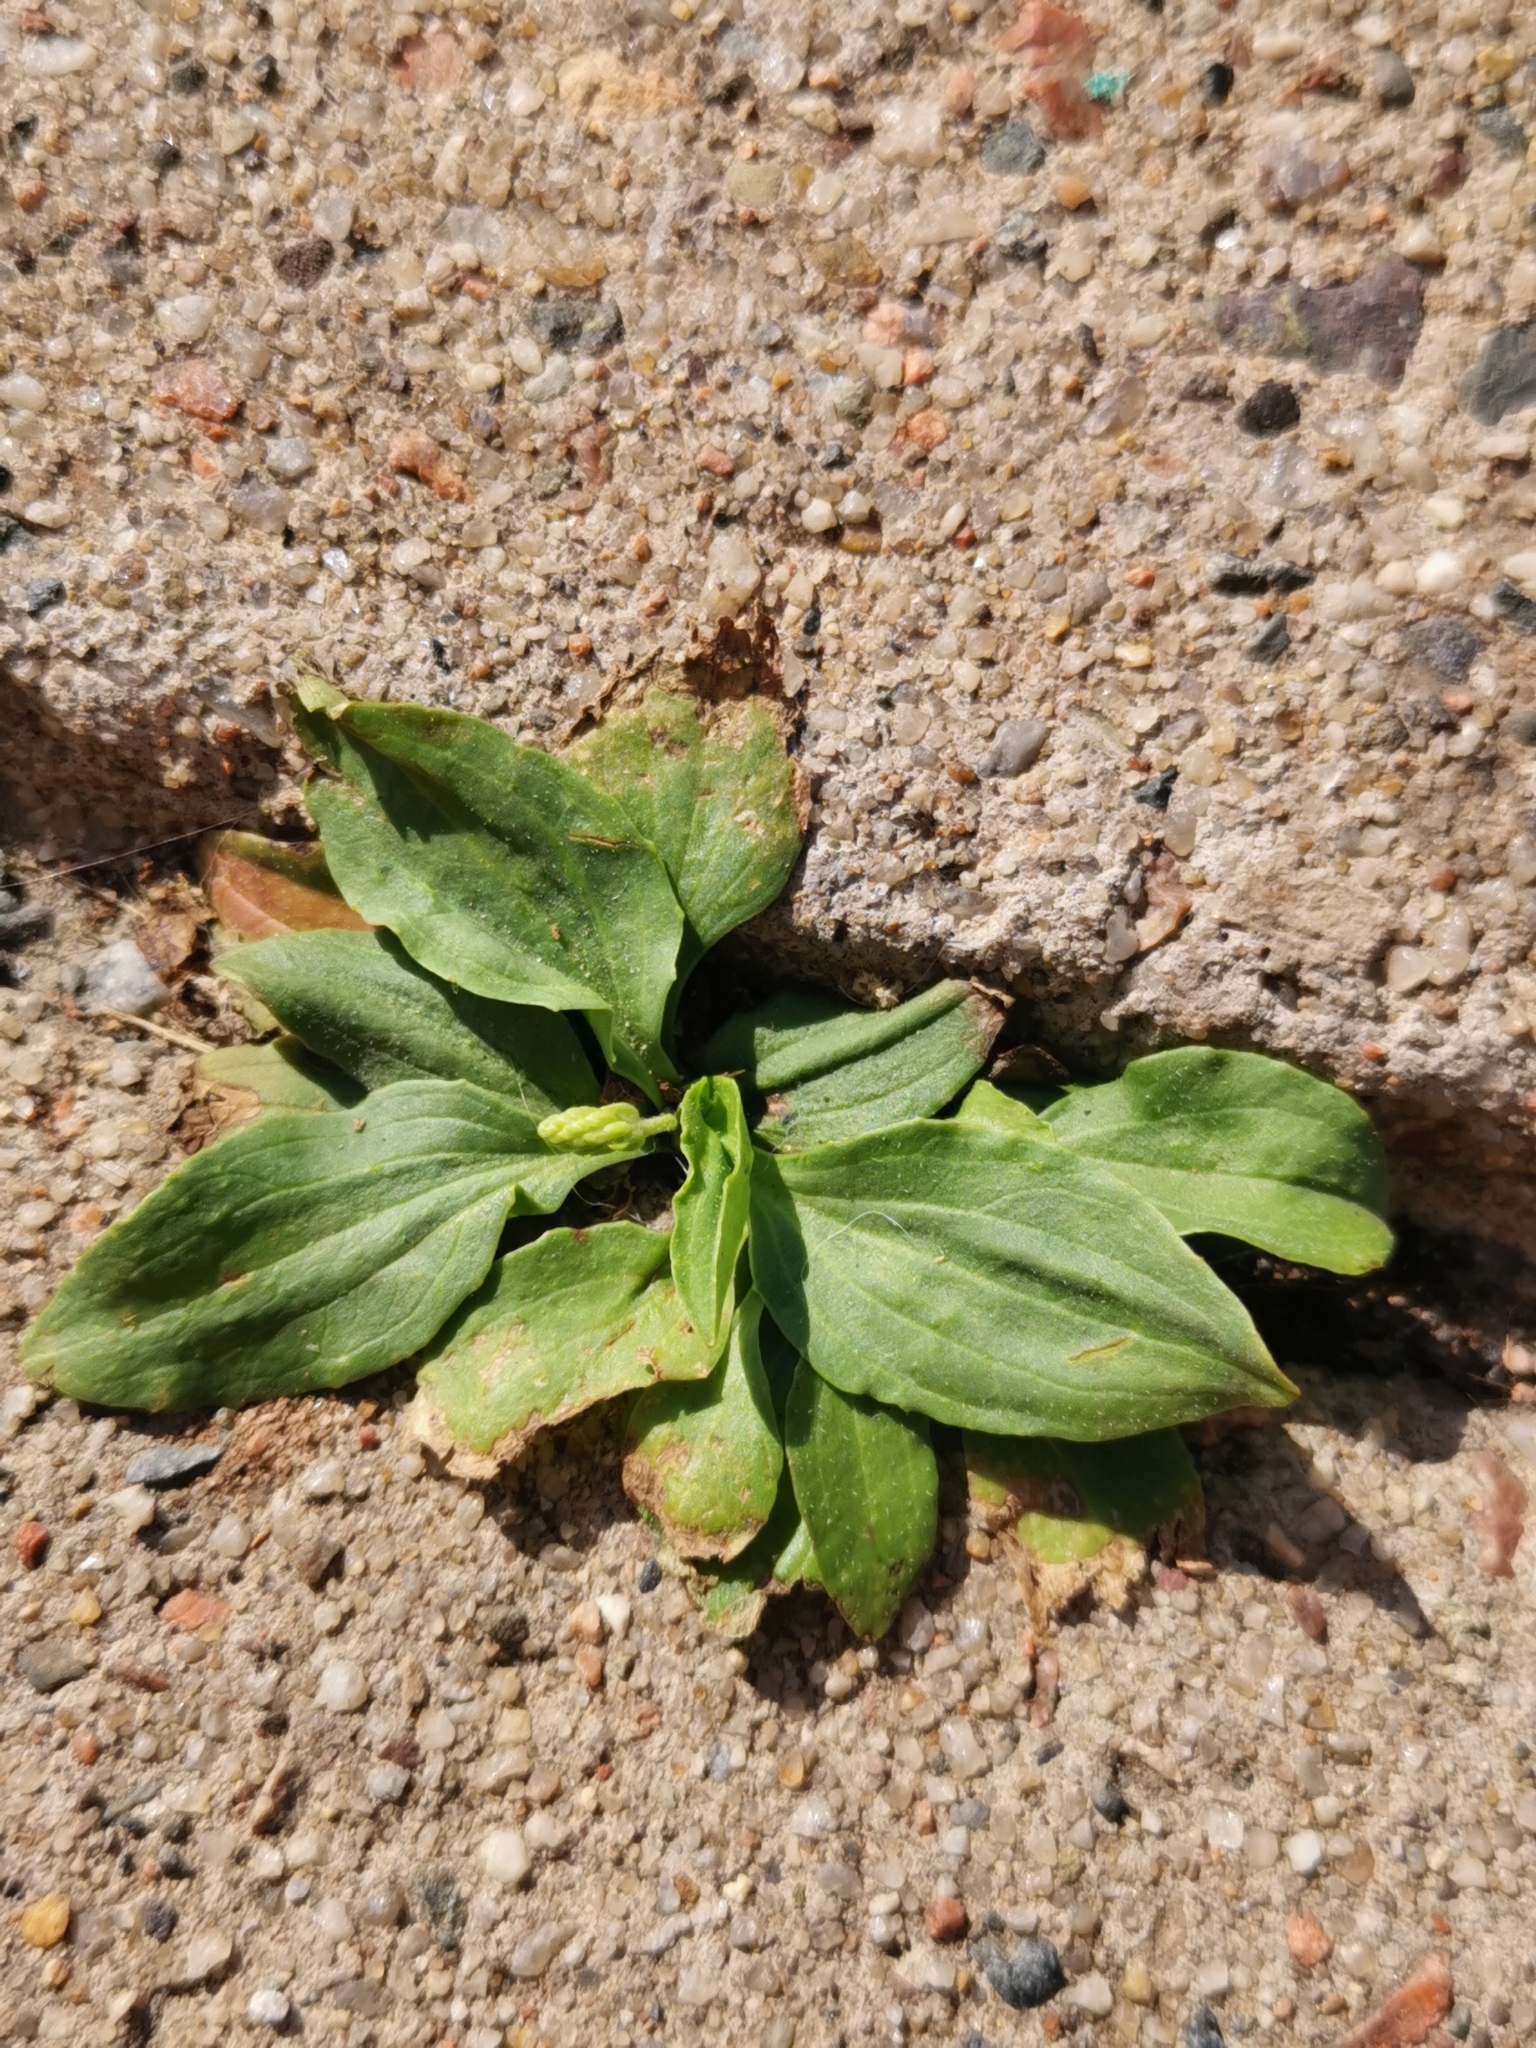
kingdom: Plantae
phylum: Tracheophyta
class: Magnoliopsida
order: Lamiales
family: Plantaginaceae
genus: Plantago
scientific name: Plantago major
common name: Common plantain
